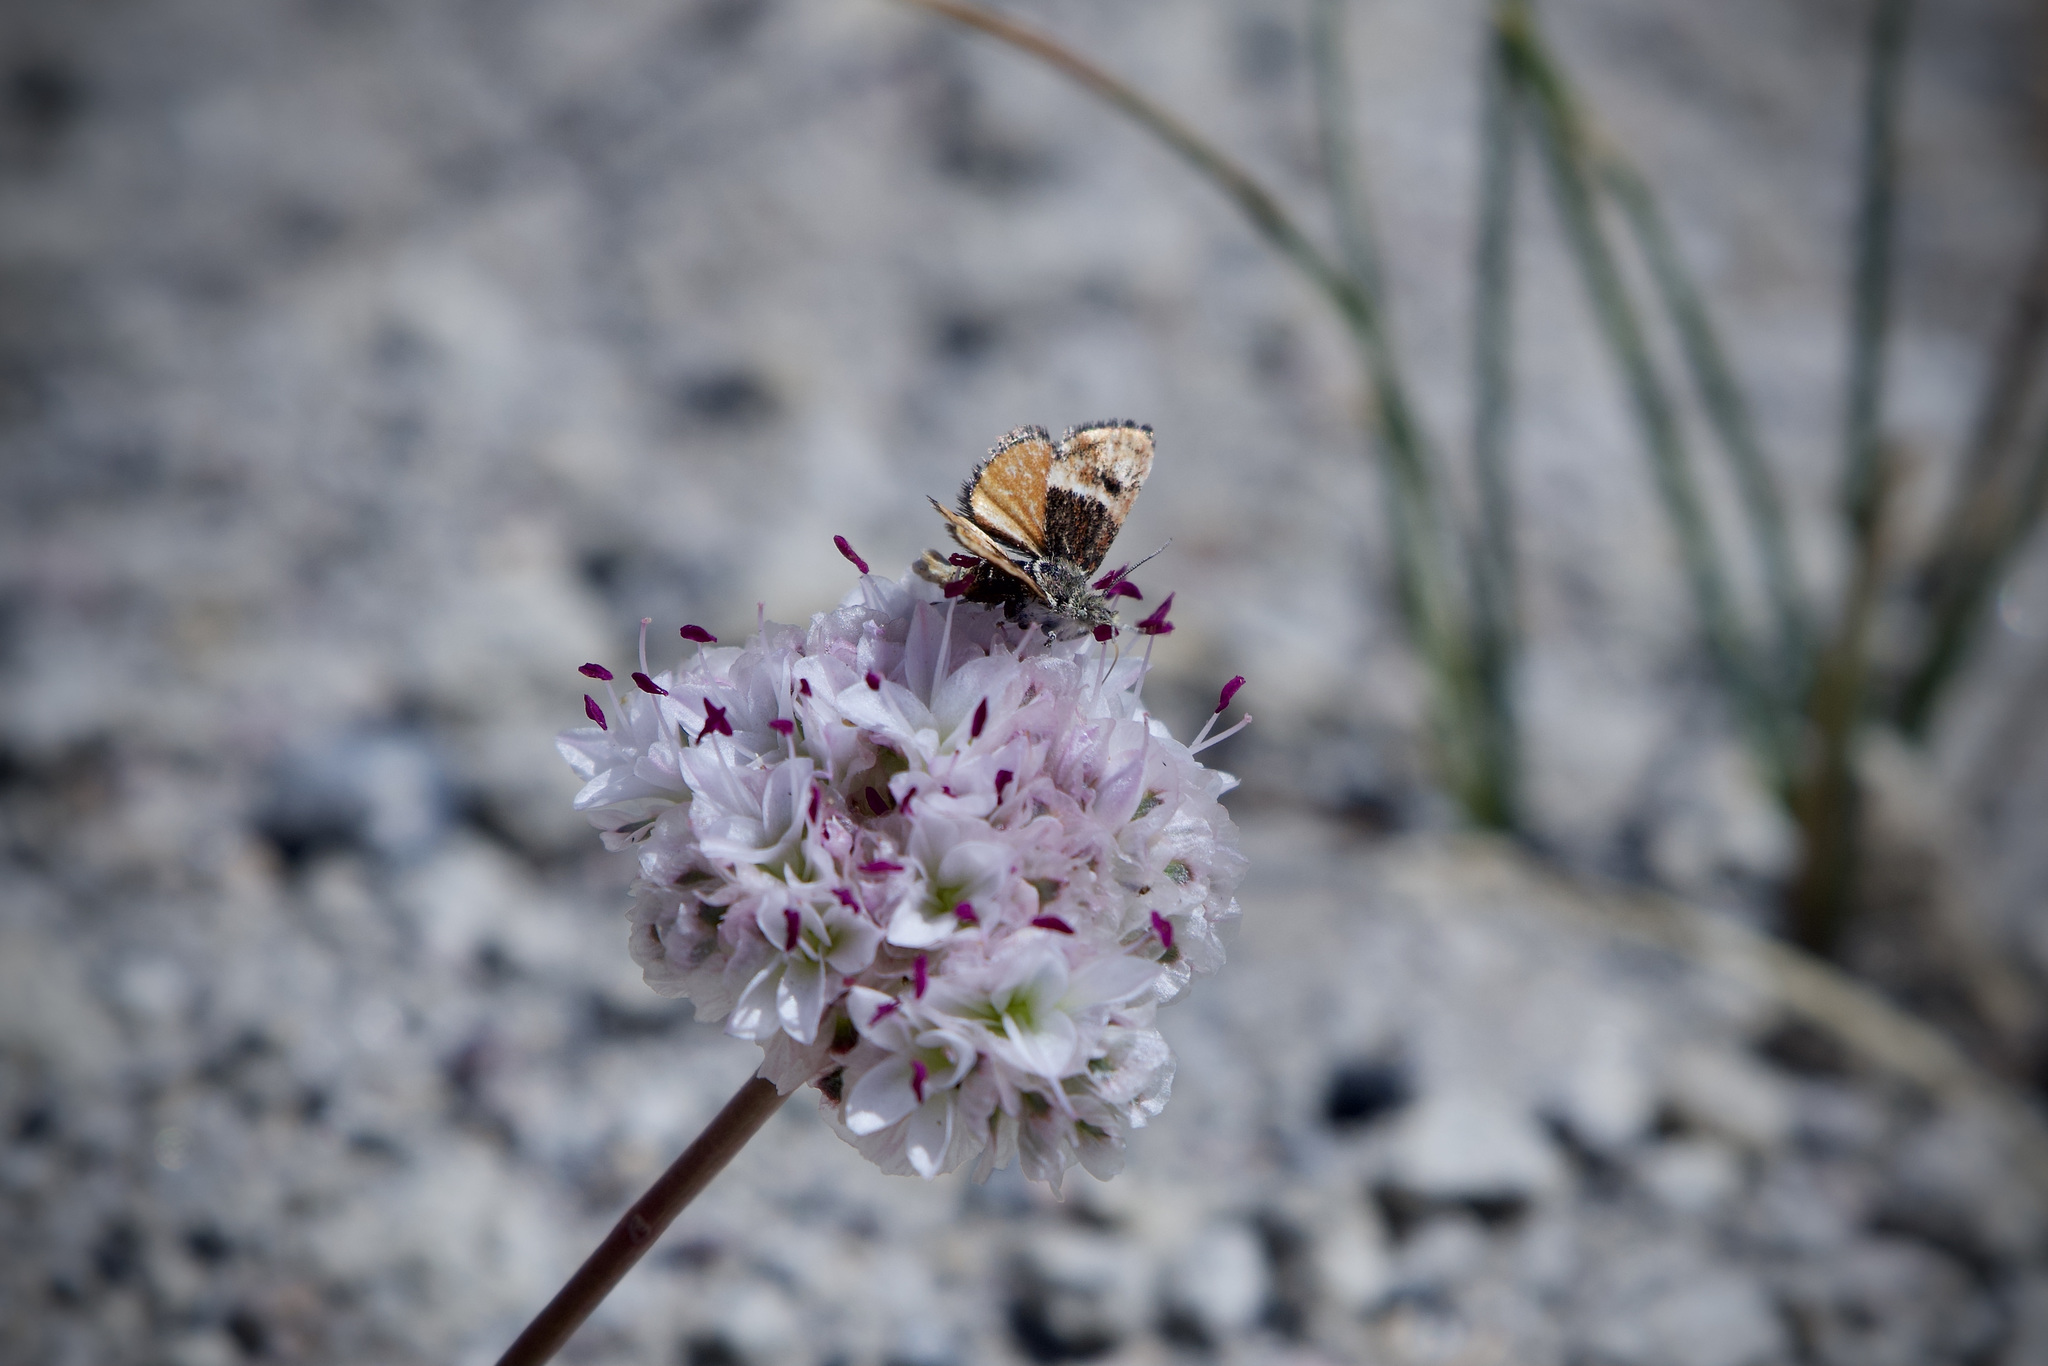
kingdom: Animalia
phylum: Arthropoda
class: Insecta
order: Lepidoptera
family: Crambidae
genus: Gyros
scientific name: Gyros muiri
